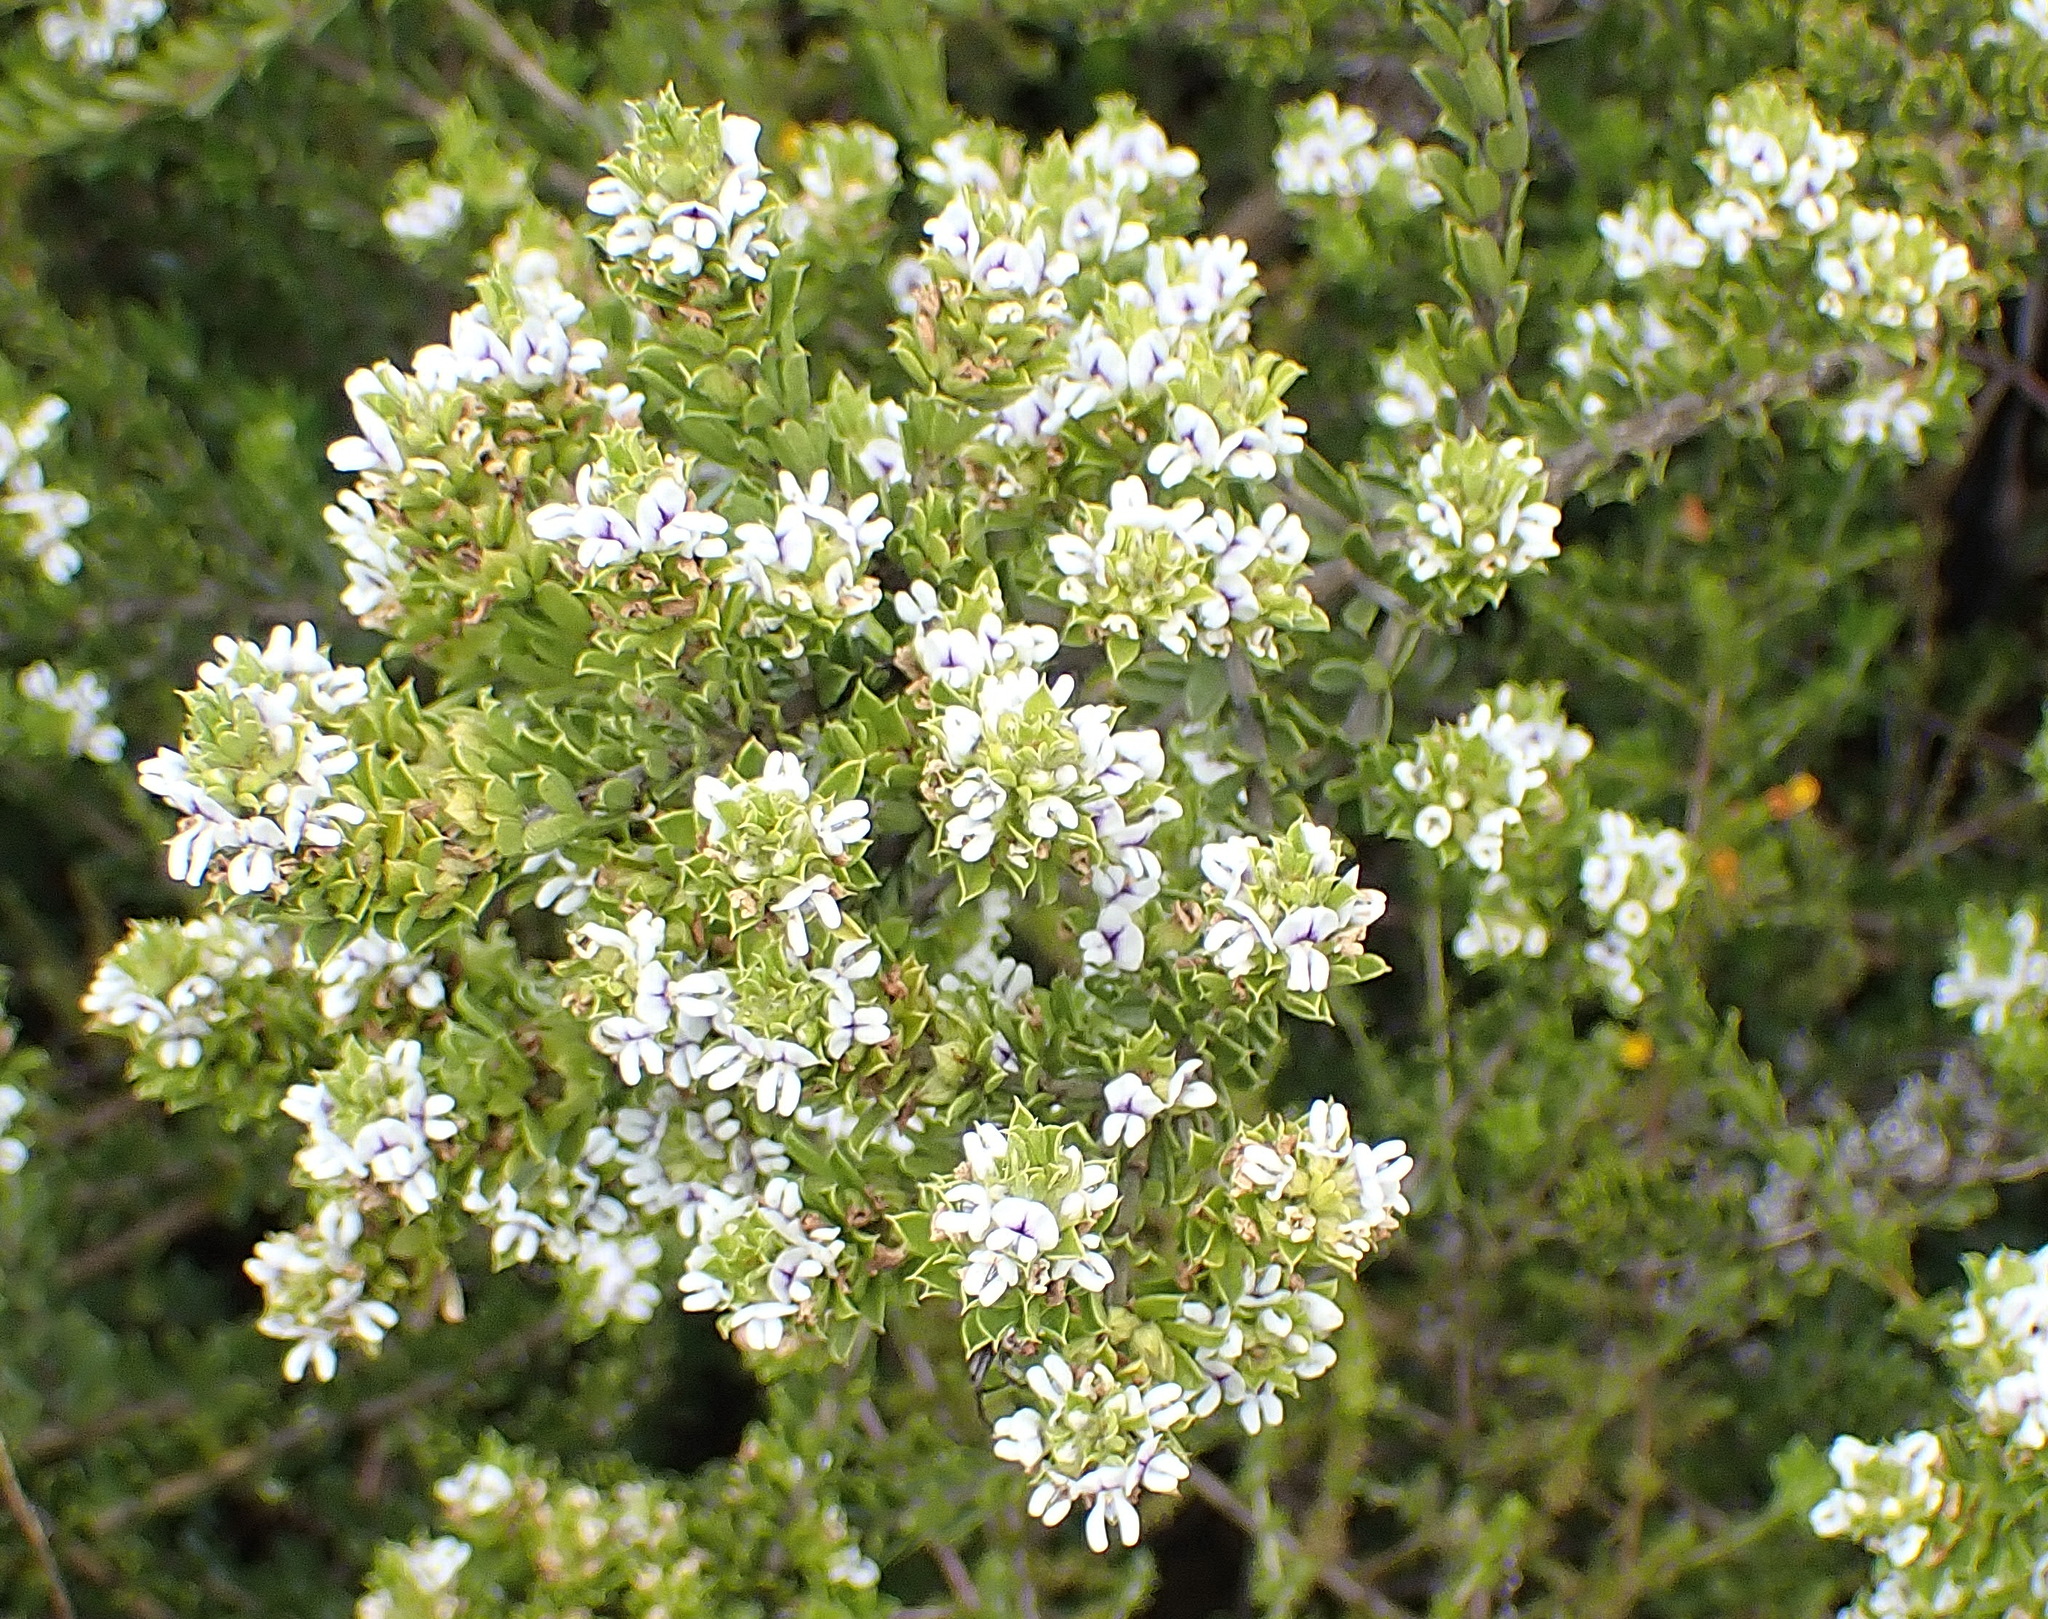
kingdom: Plantae
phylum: Tracheophyta
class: Magnoliopsida
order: Fabales
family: Fabaceae
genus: Psoralea
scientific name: Psoralea heterosepala
